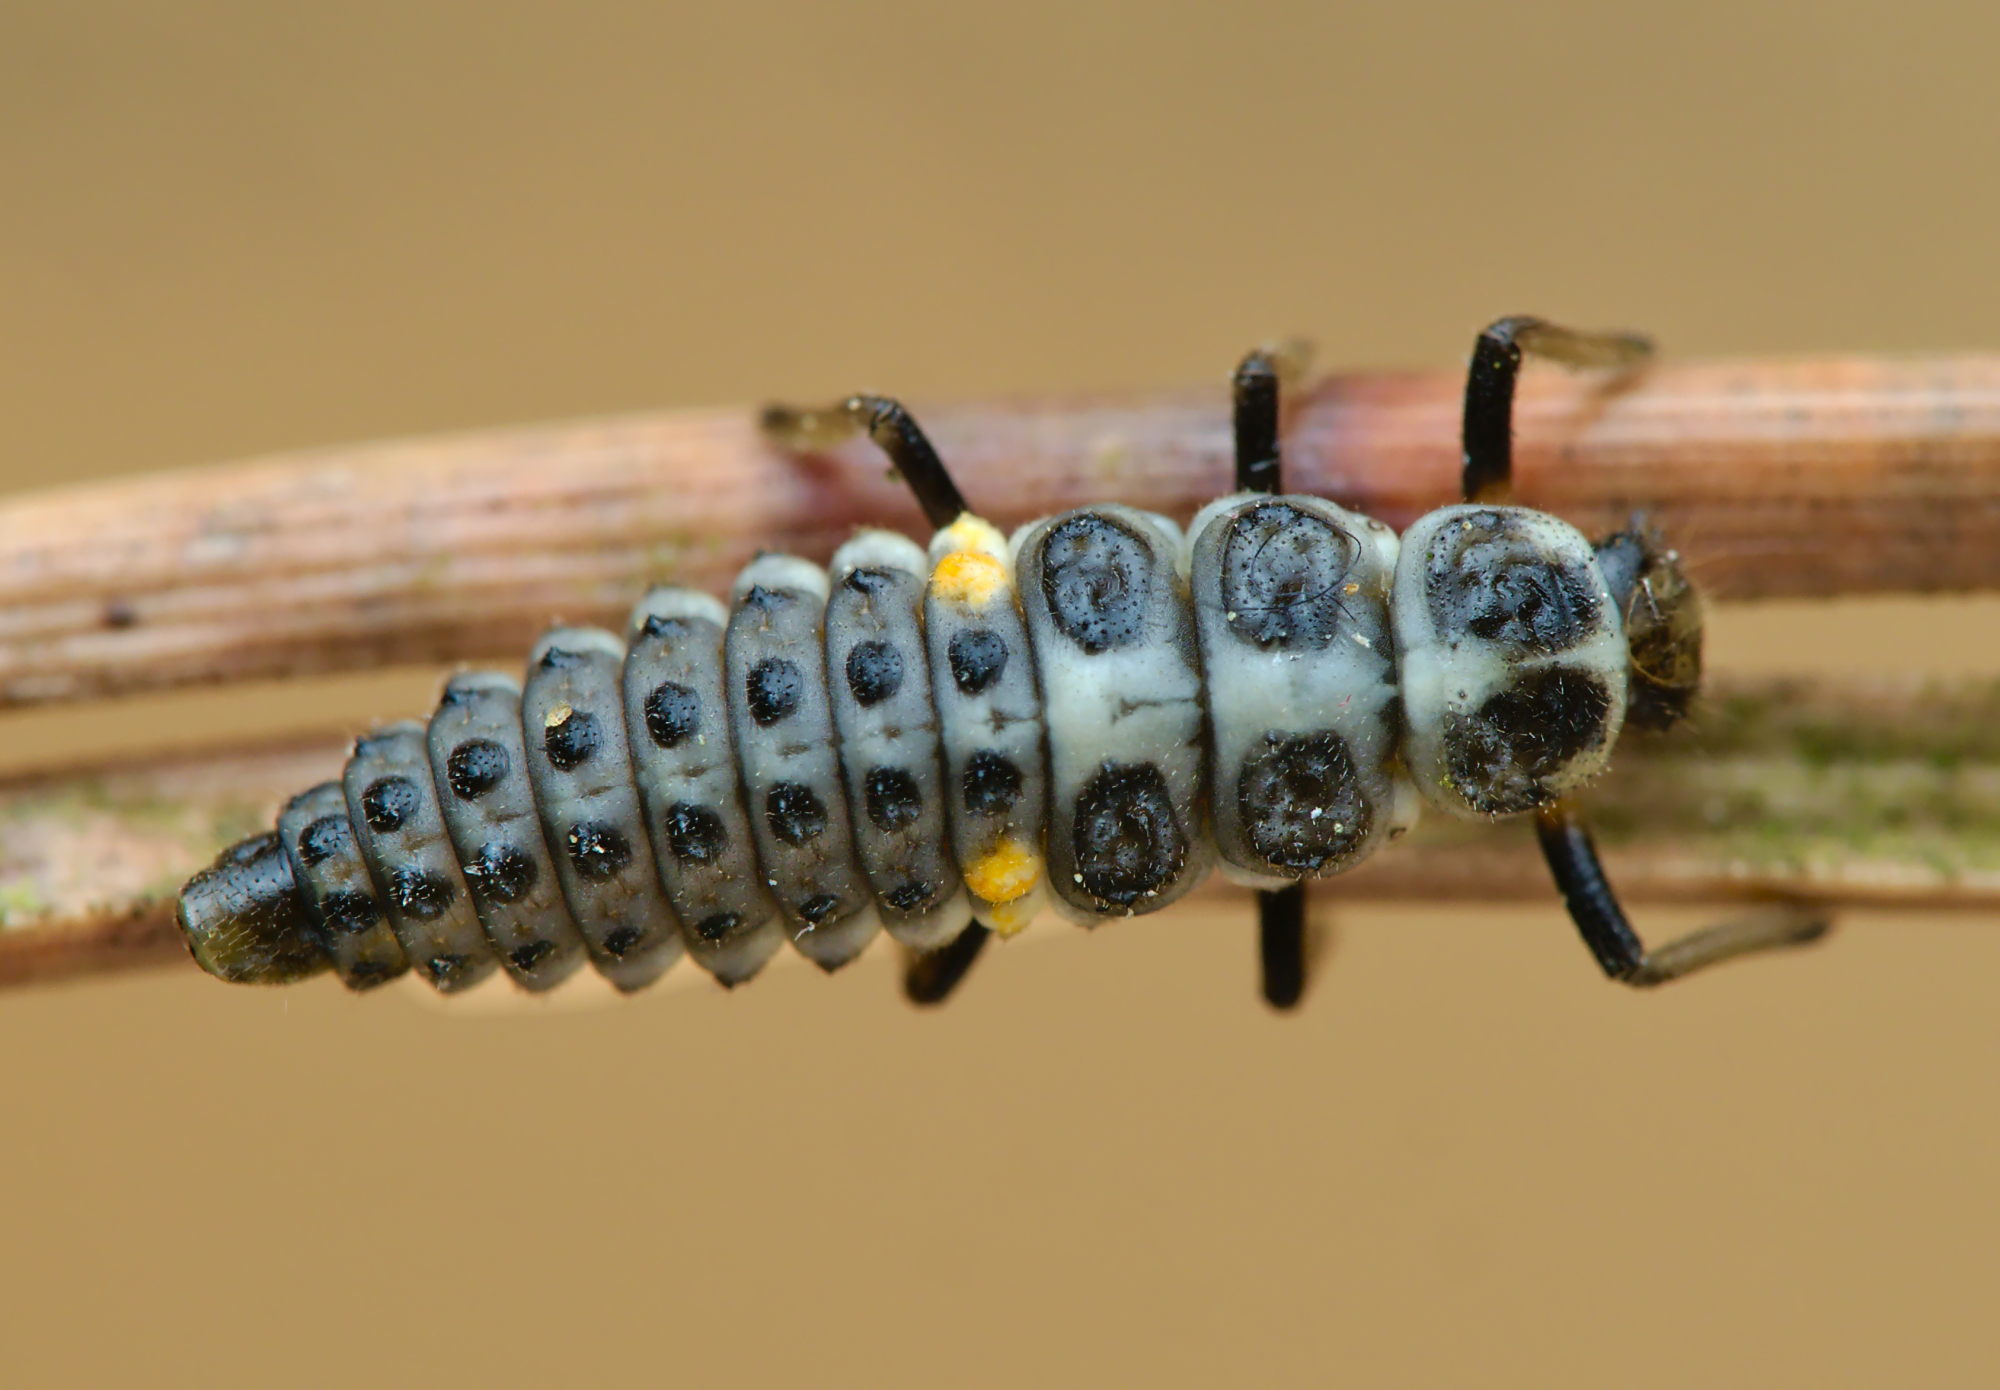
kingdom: Animalia
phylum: Arthropoda
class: Insecta
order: Coleoptera
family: Coccinellidae
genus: Myrrha
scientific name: Myrrha octodecimguttata
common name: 18-spot ladybird
